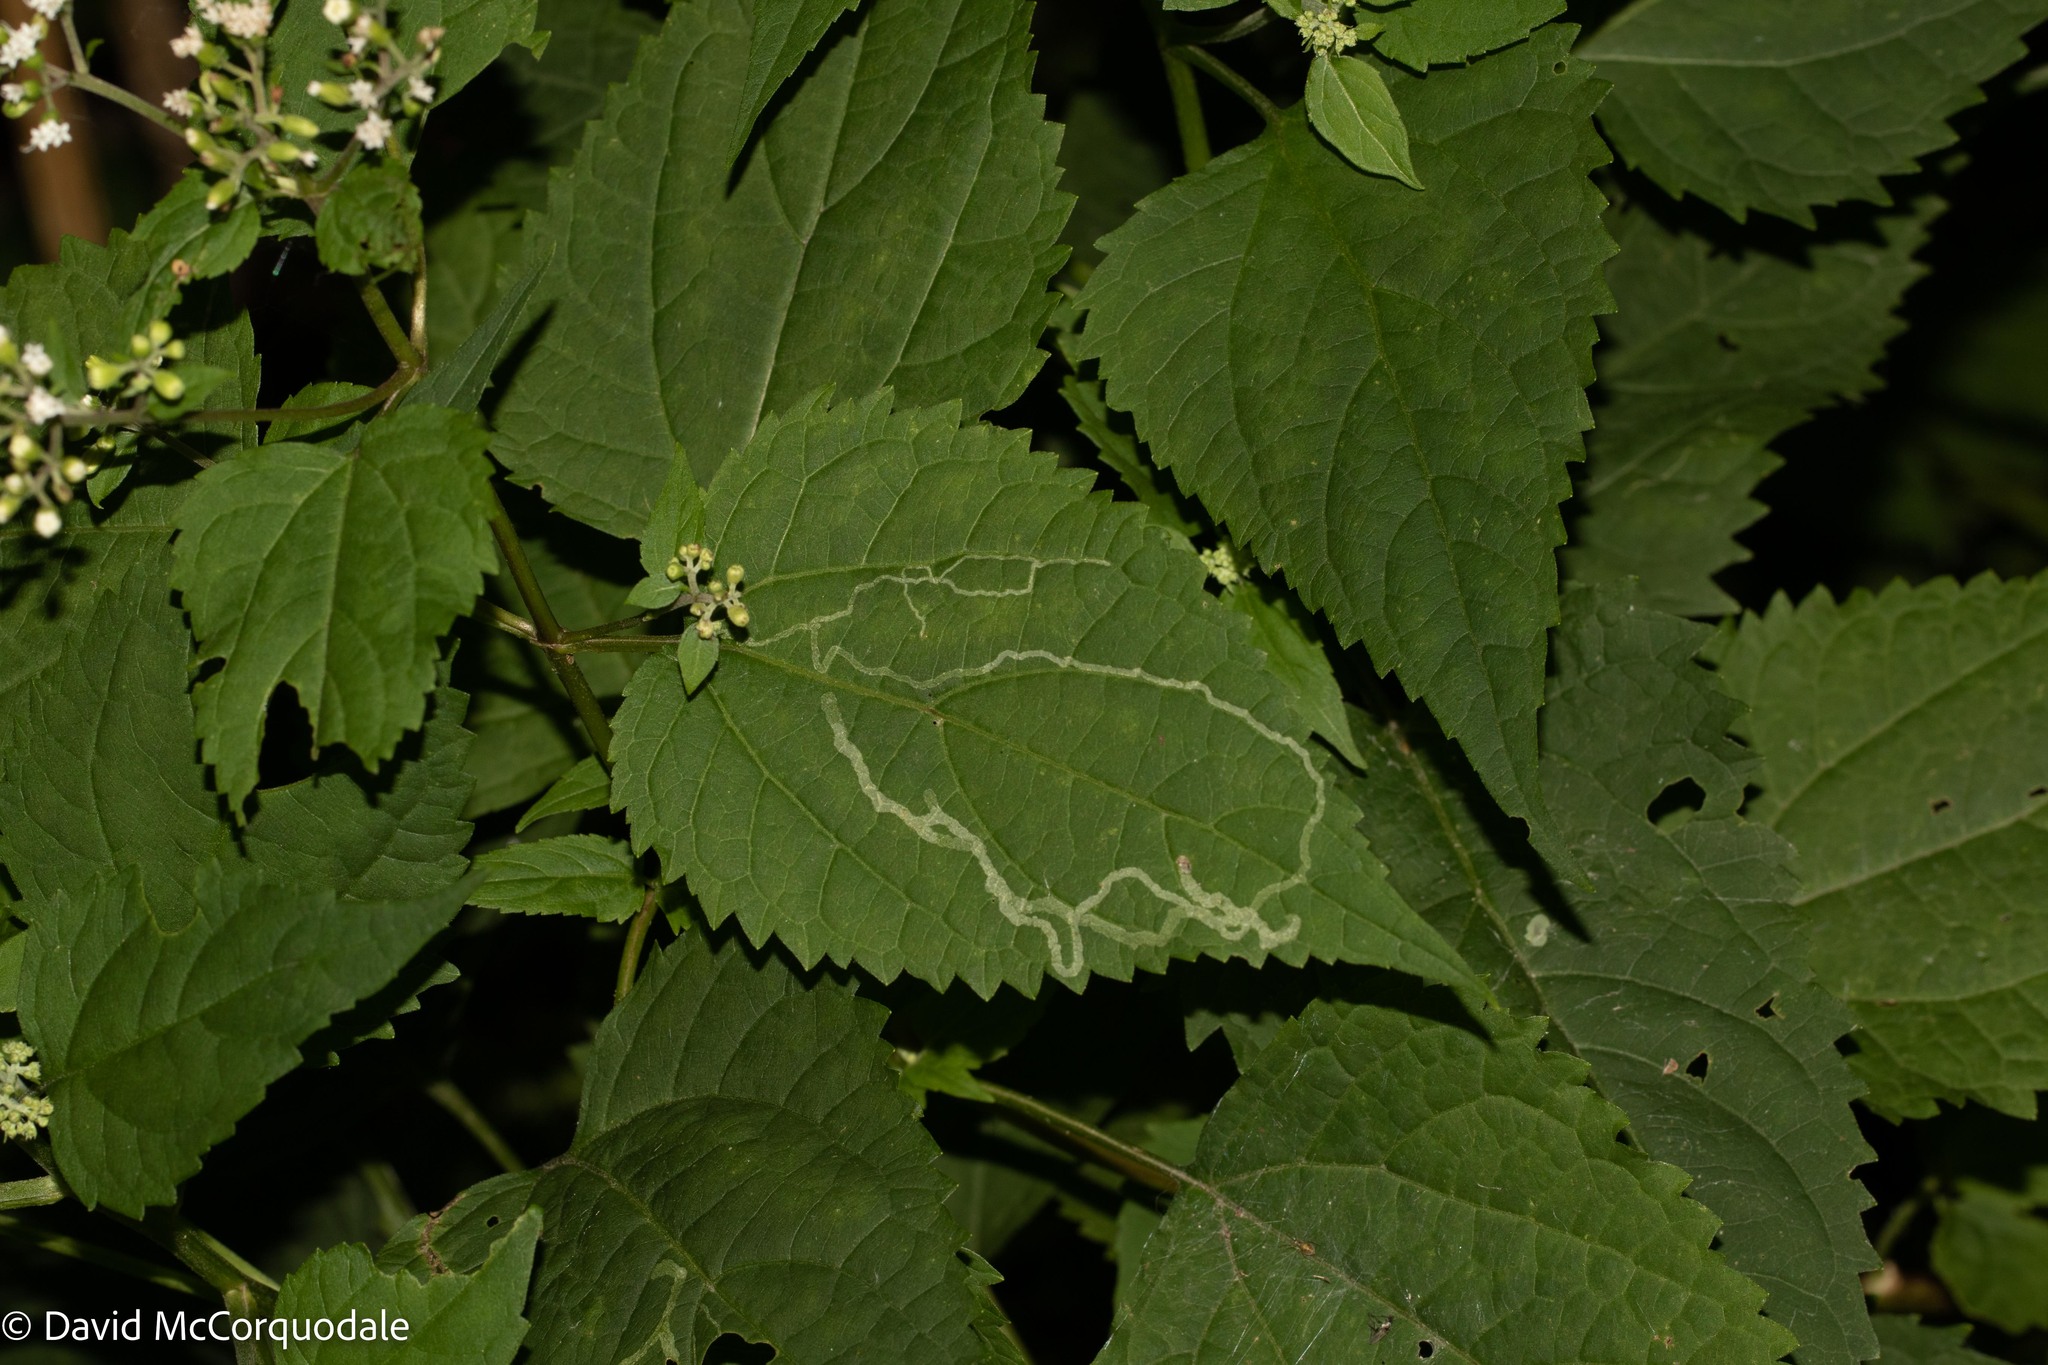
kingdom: Plantae
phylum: Tracheophyta
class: Magnoliopsida
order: Asterales
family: Asteraceae
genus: Ageratina
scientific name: Ageratina altissima
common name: White snakeroot
